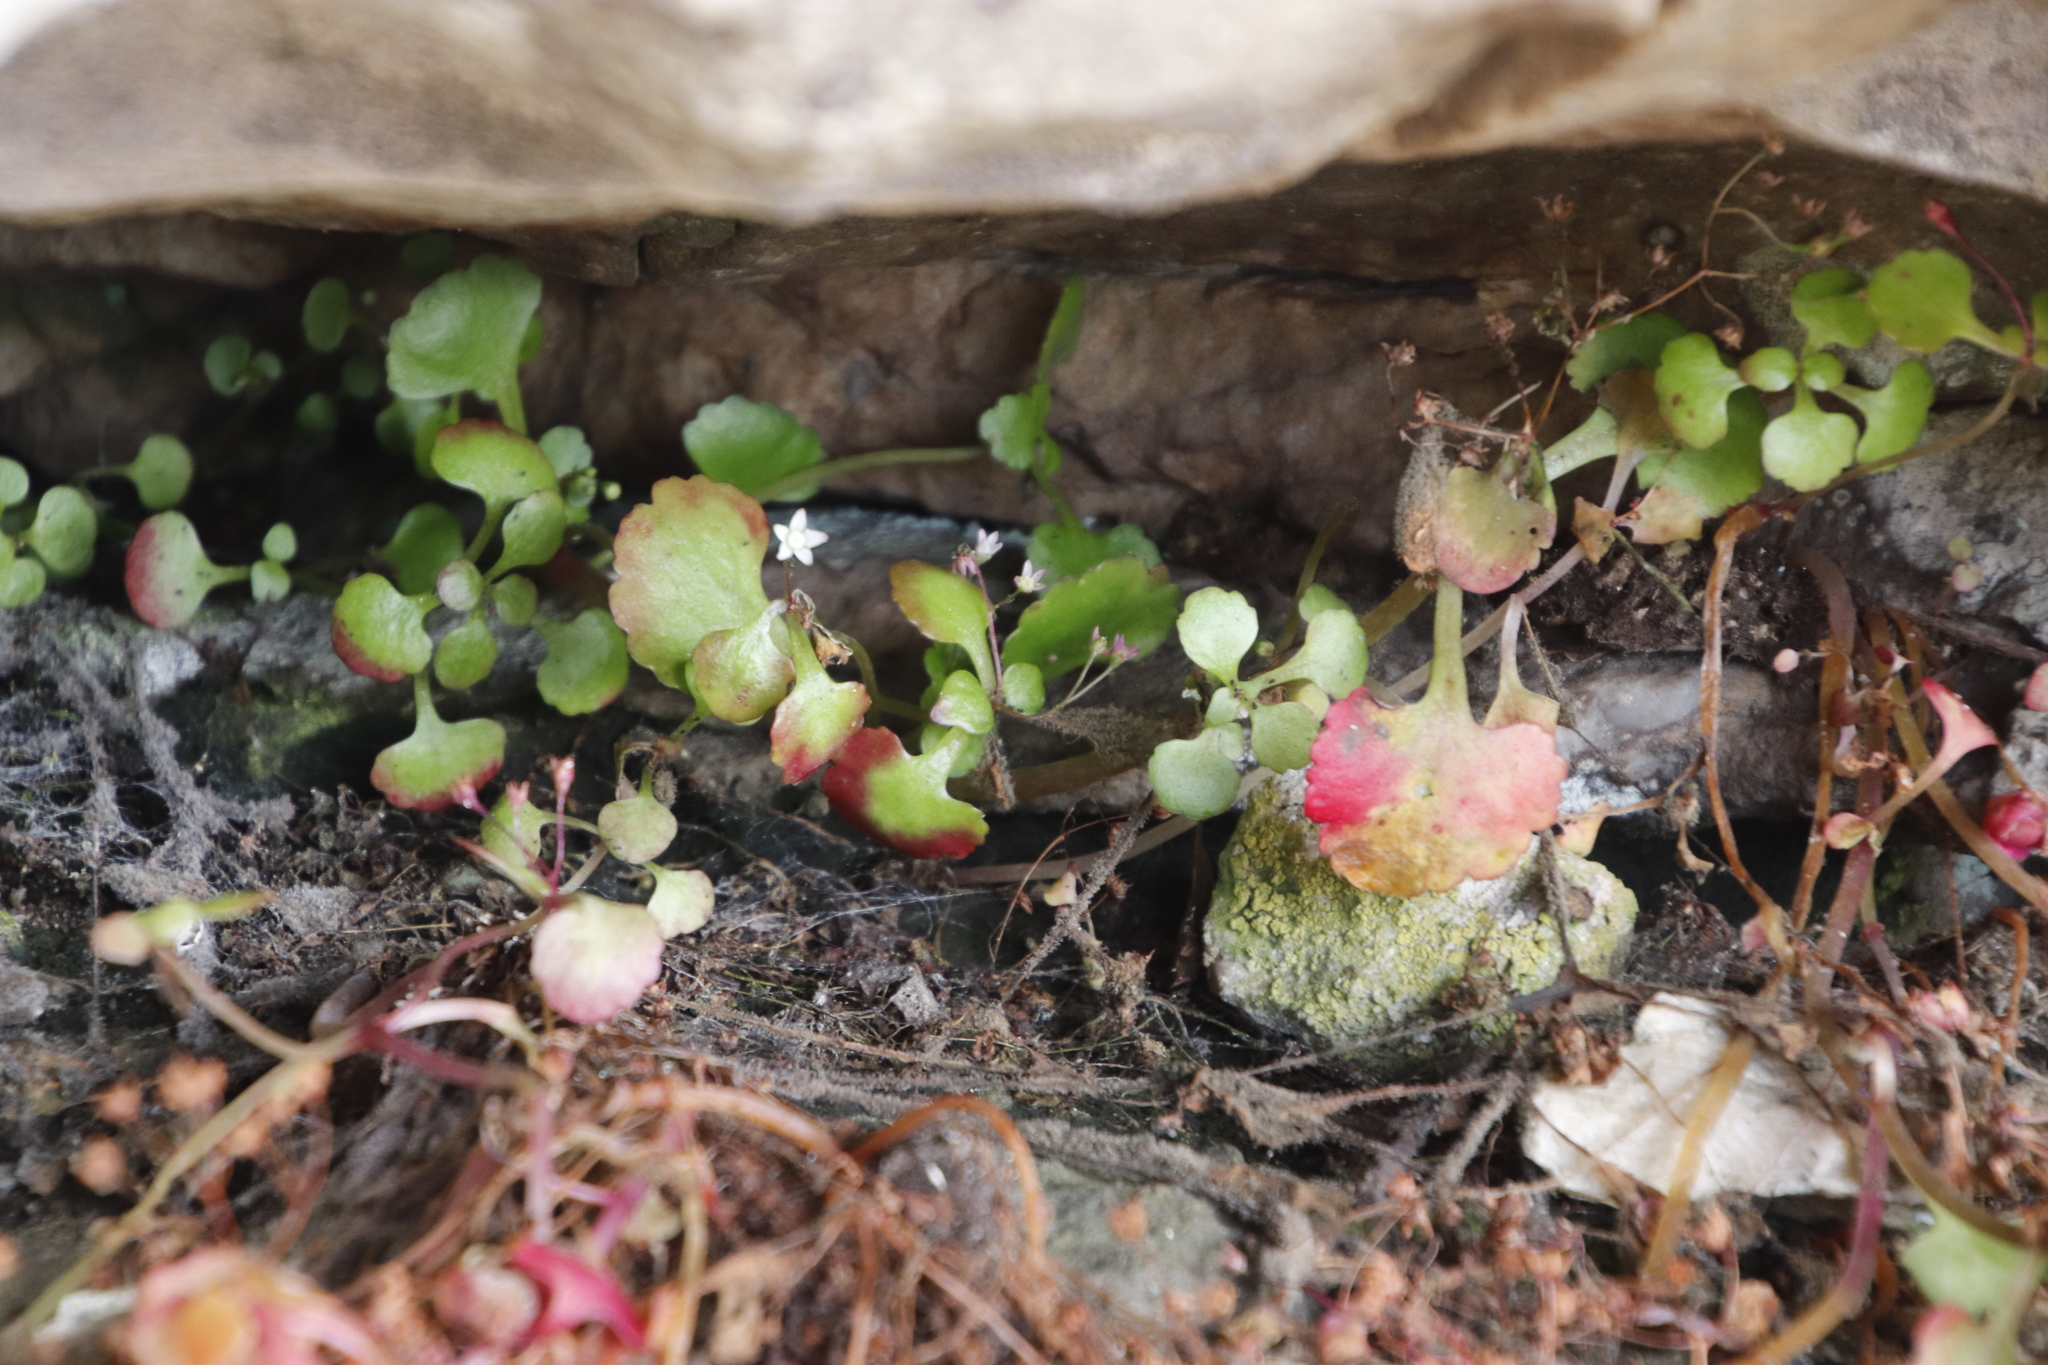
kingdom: Plantae
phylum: Tracheophyta
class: Magnoliopsida
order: Saxifragales
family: Crassulaceae
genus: Crassula
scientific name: Crassula capensis
